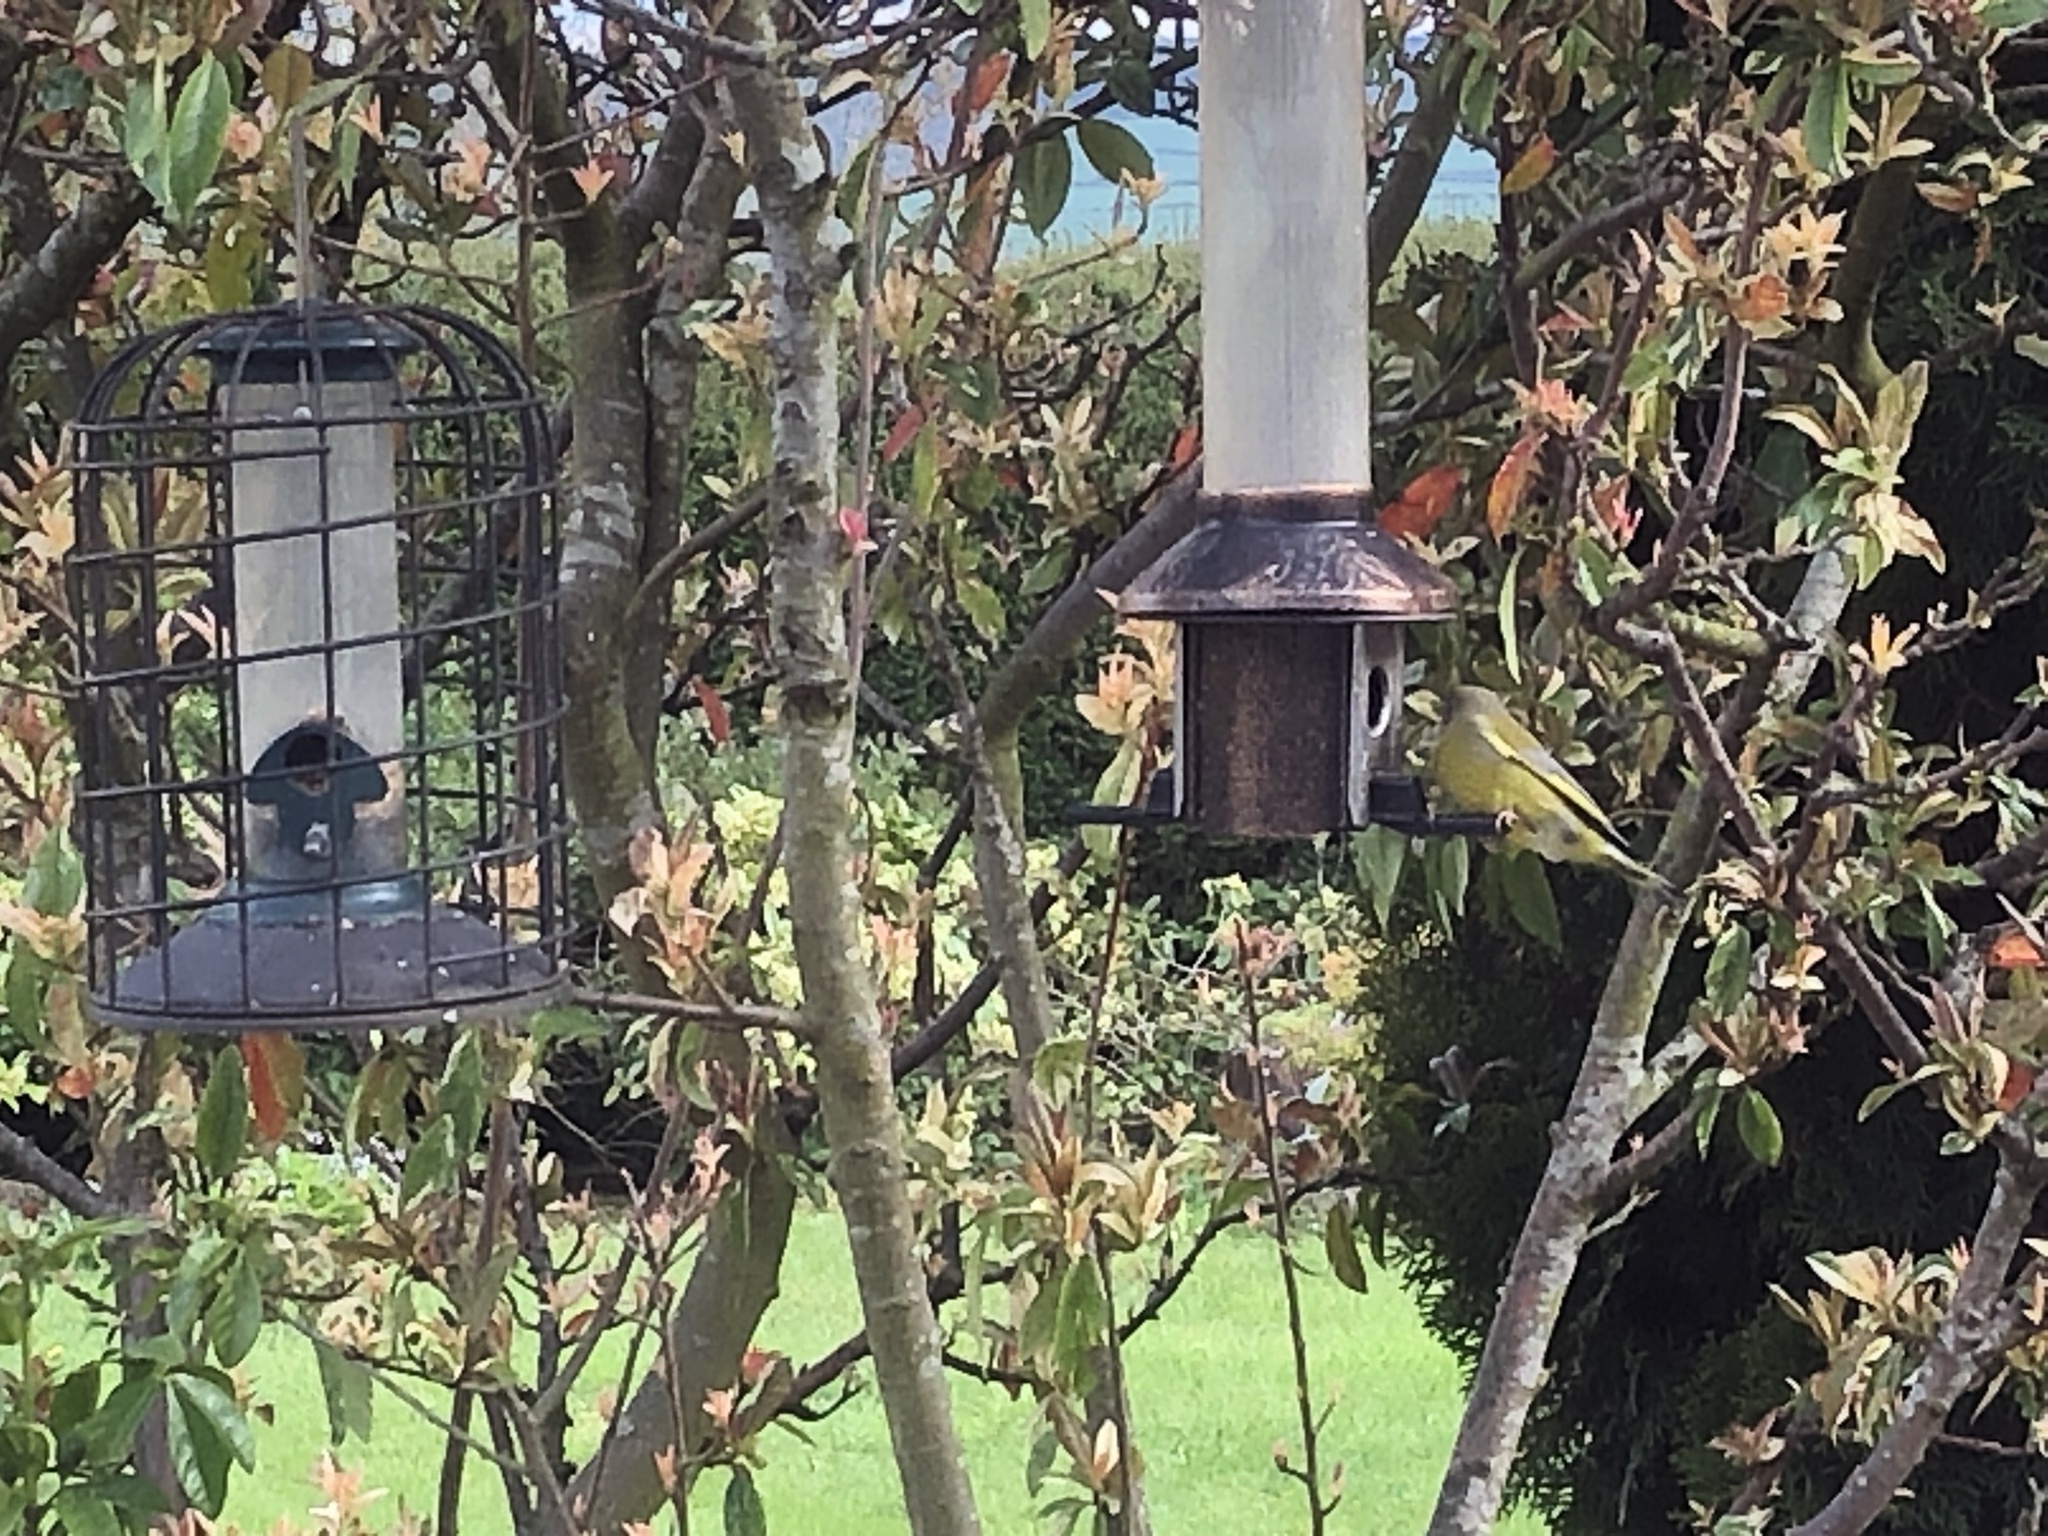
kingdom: Plantae
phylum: Tracheophyta
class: Liliopsida
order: Poales
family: Poaceae
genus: Chloris
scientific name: Chloris chloris
